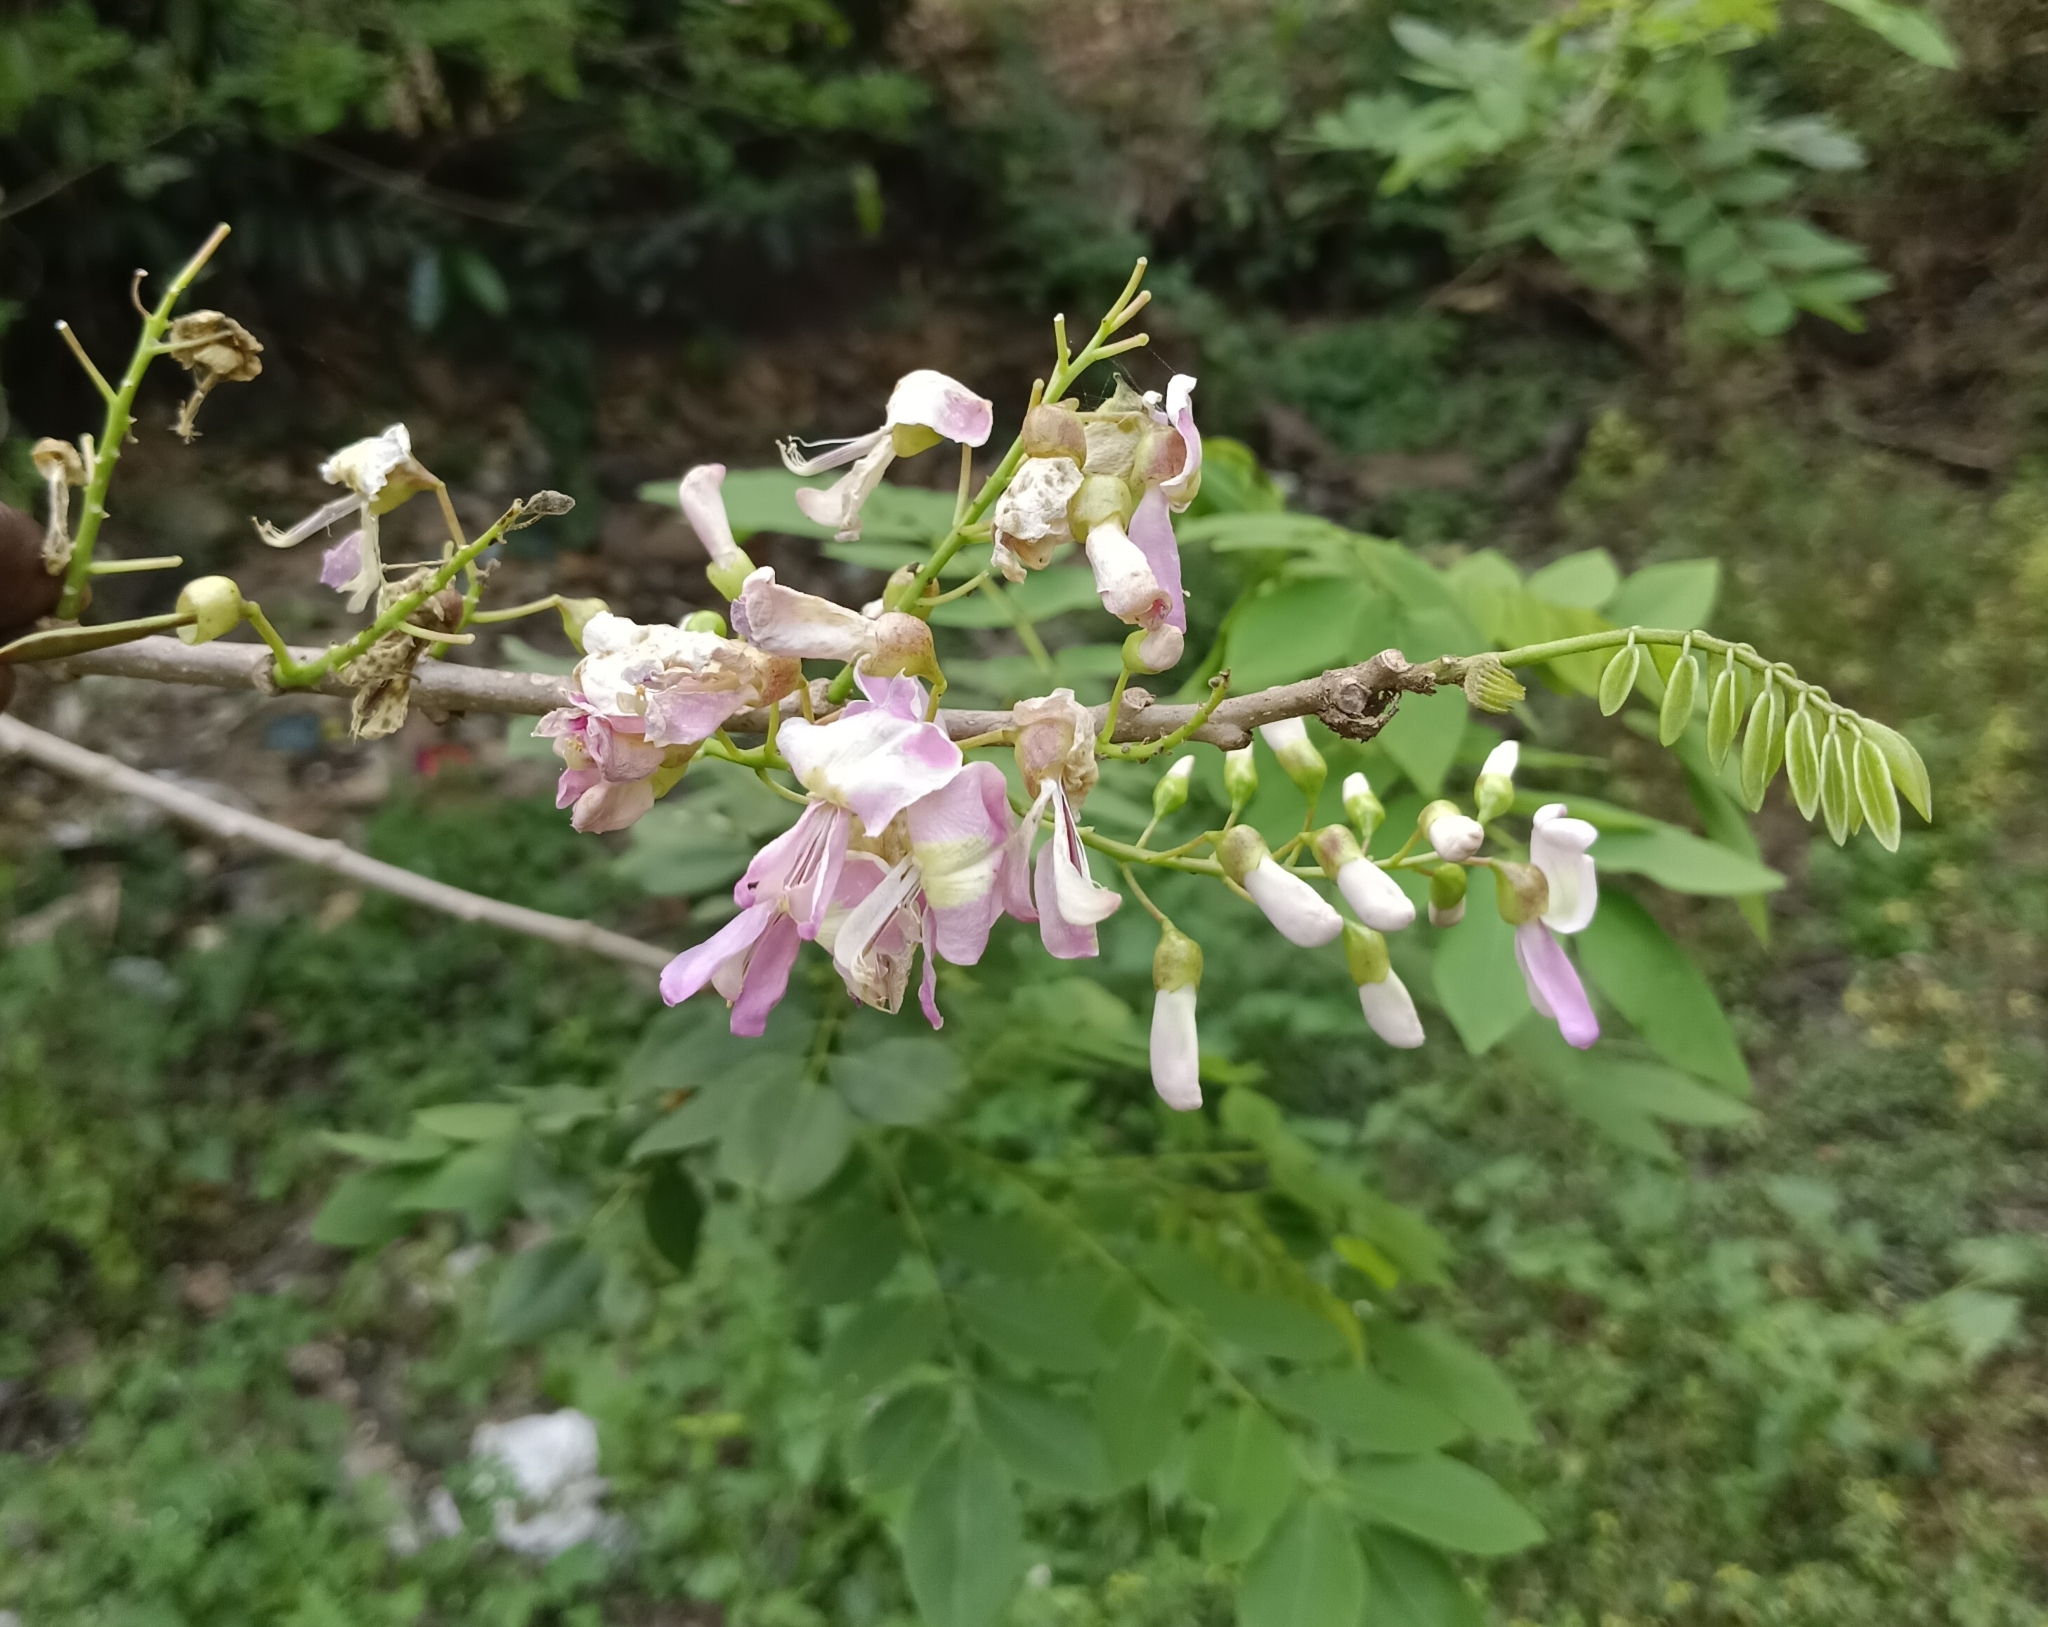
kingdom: Plantae
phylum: Tracheophyta
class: Magnoliopsida
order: Fabales
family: Fabaceae
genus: Gliricidia
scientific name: Gliricidia sepium
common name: Quickstick
